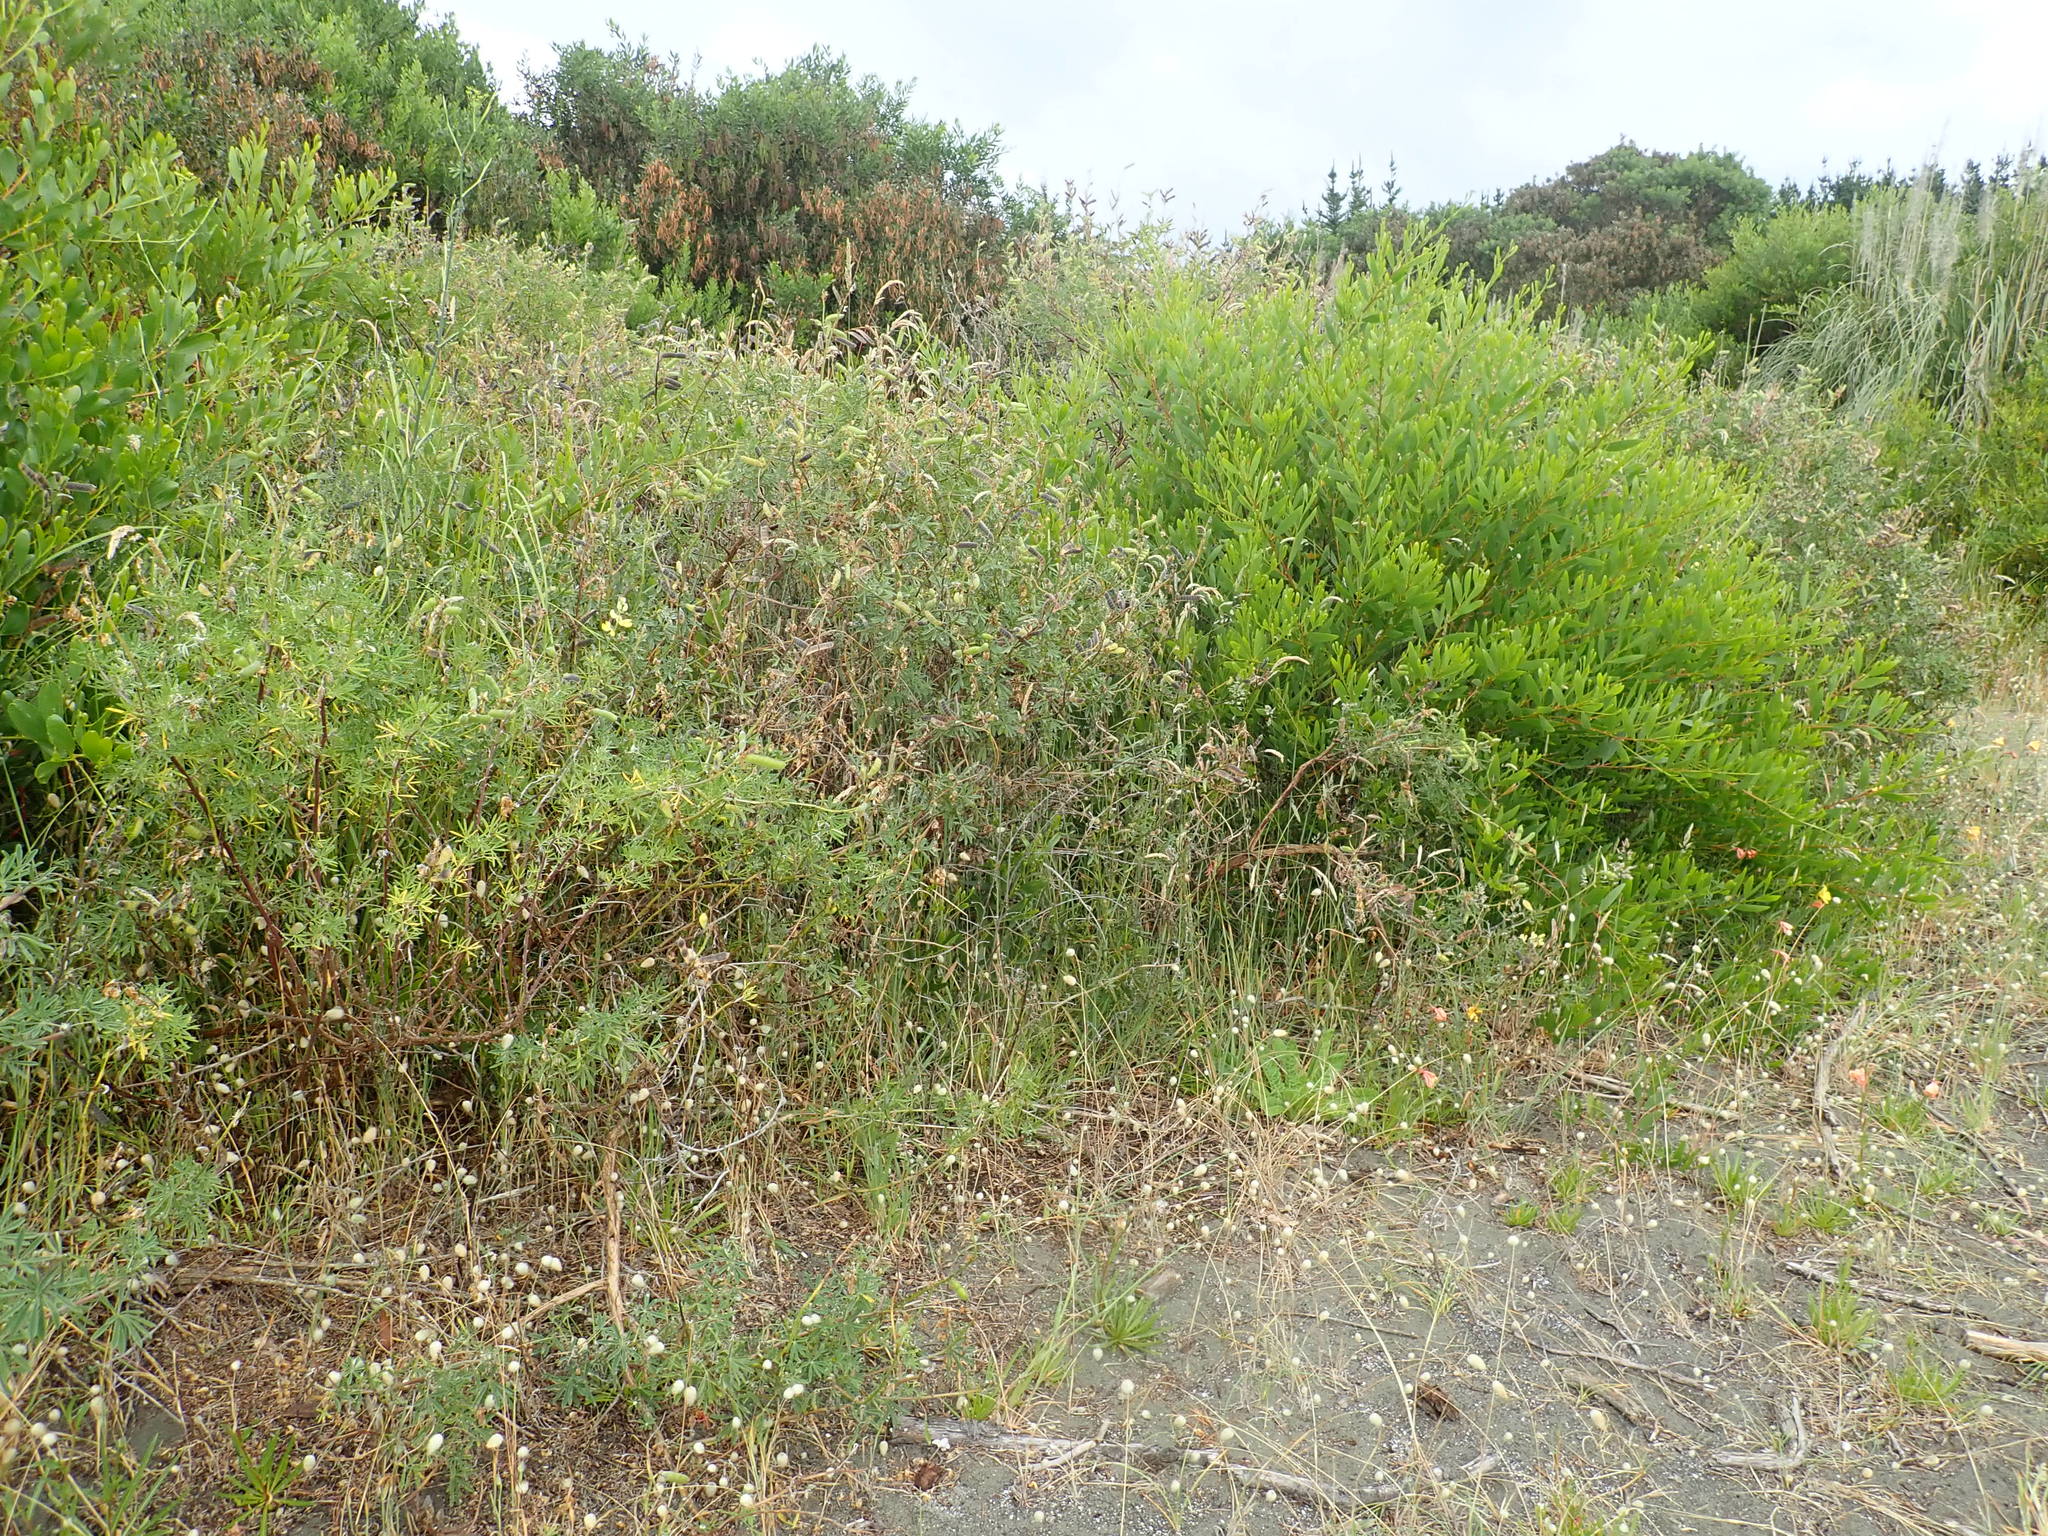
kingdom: Plantae
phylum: Tracheophyta
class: Magnoliopsida
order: Fabales
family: Fabaceae
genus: Lupinus
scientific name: Lupinus arboreus
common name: Yellow bush lupine
